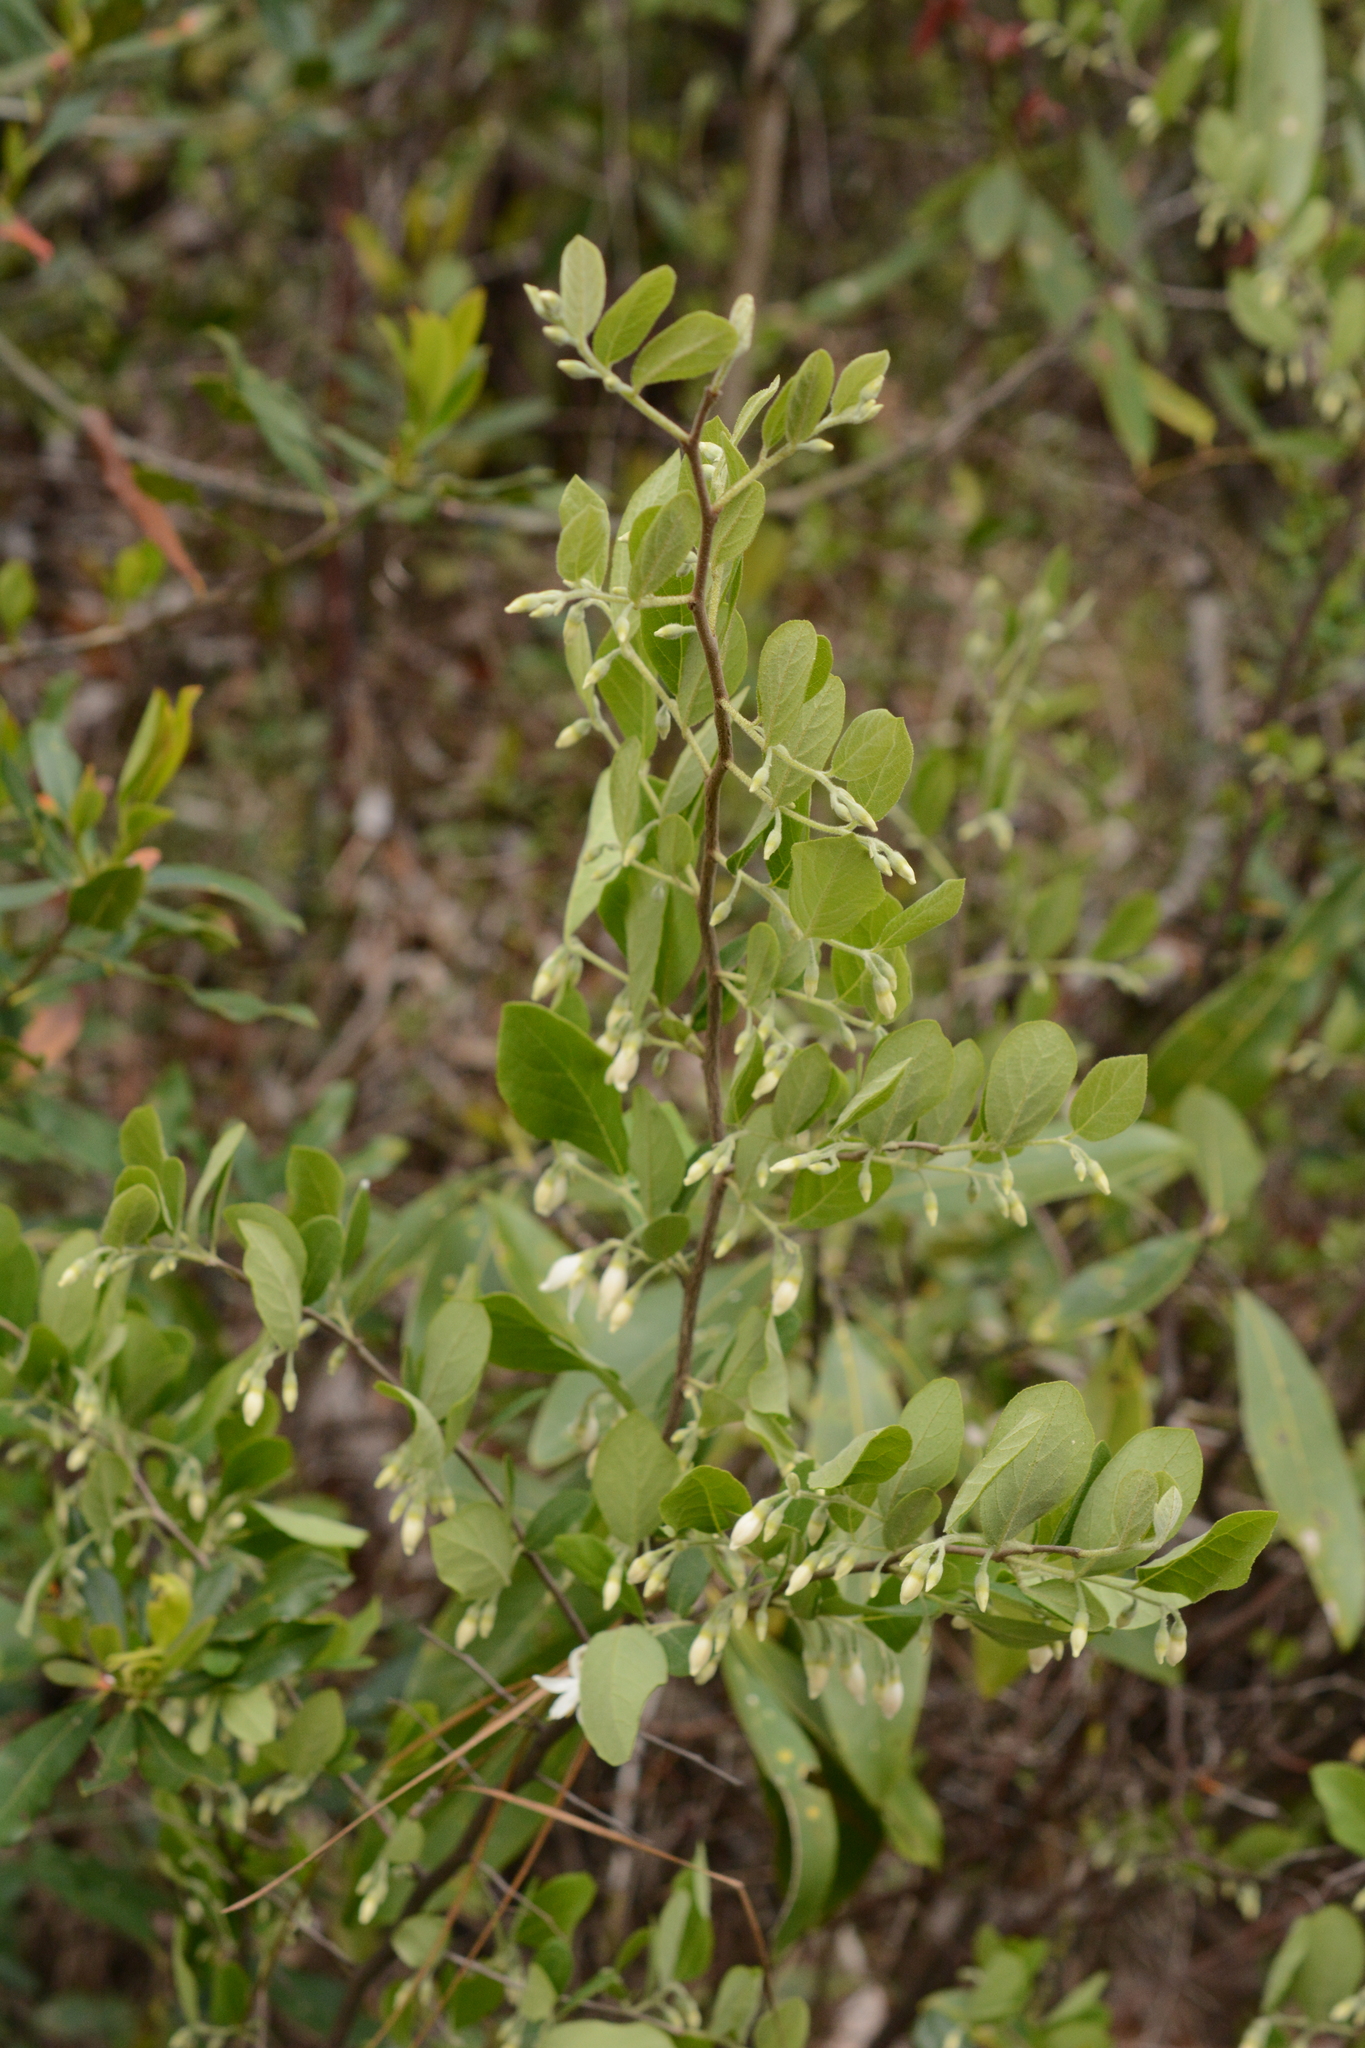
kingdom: Plantae
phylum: Tracheophyta
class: Magnoliopsida
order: Ericales
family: Styracaceae
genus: Styrax
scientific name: Styrax americanus
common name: American snowbell
